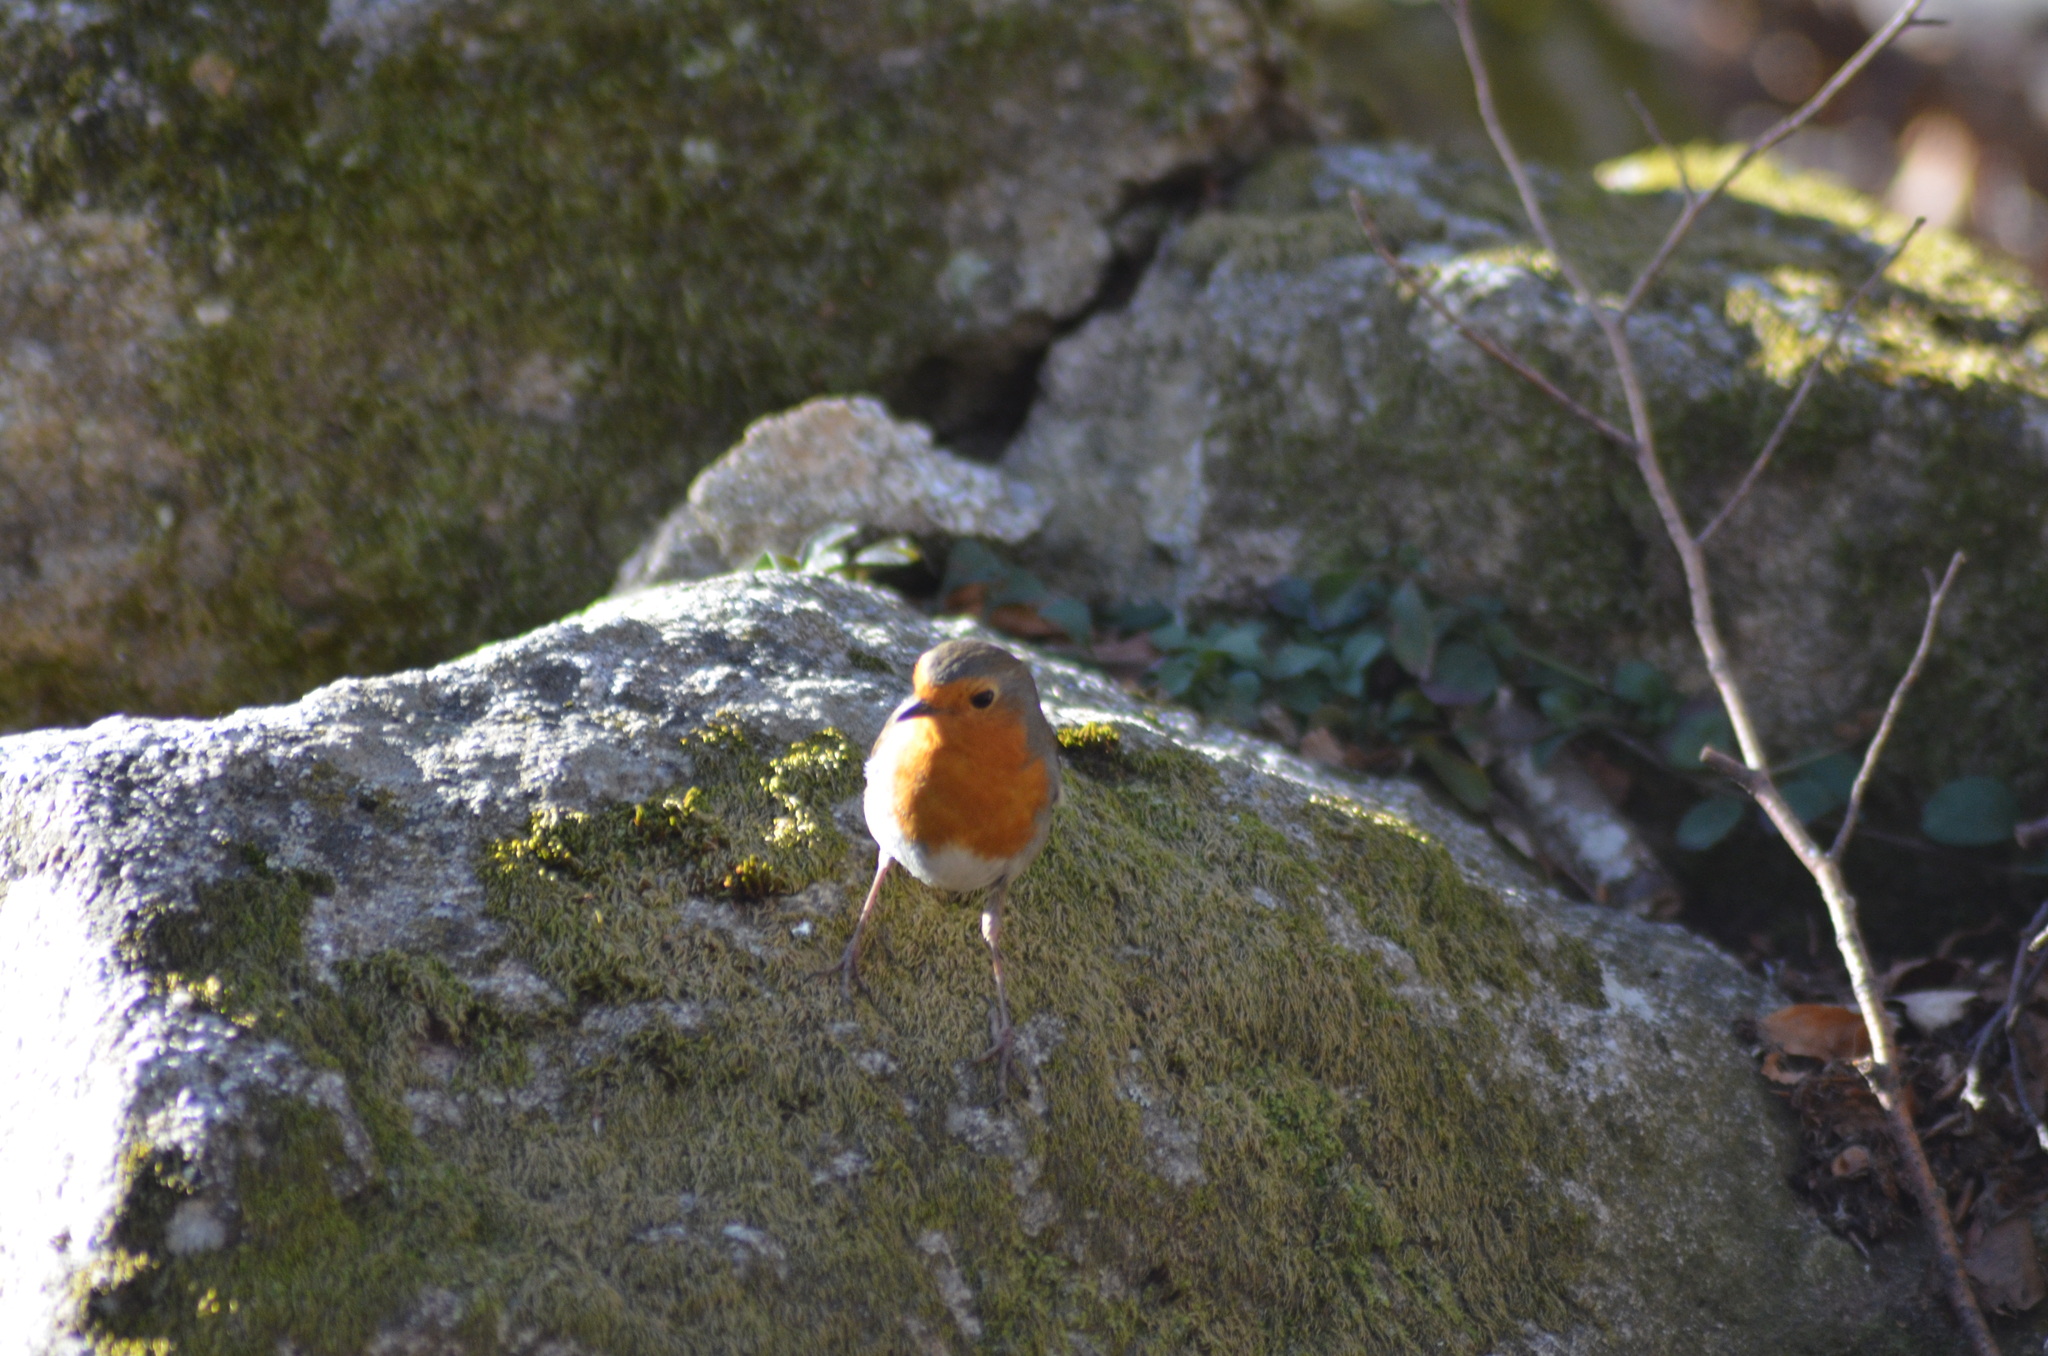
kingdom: Animalia
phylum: Chordata
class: Aves
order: Passeriformes
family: Muscicapidae
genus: Erithacus
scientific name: Erithacus rubecula
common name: European robin
